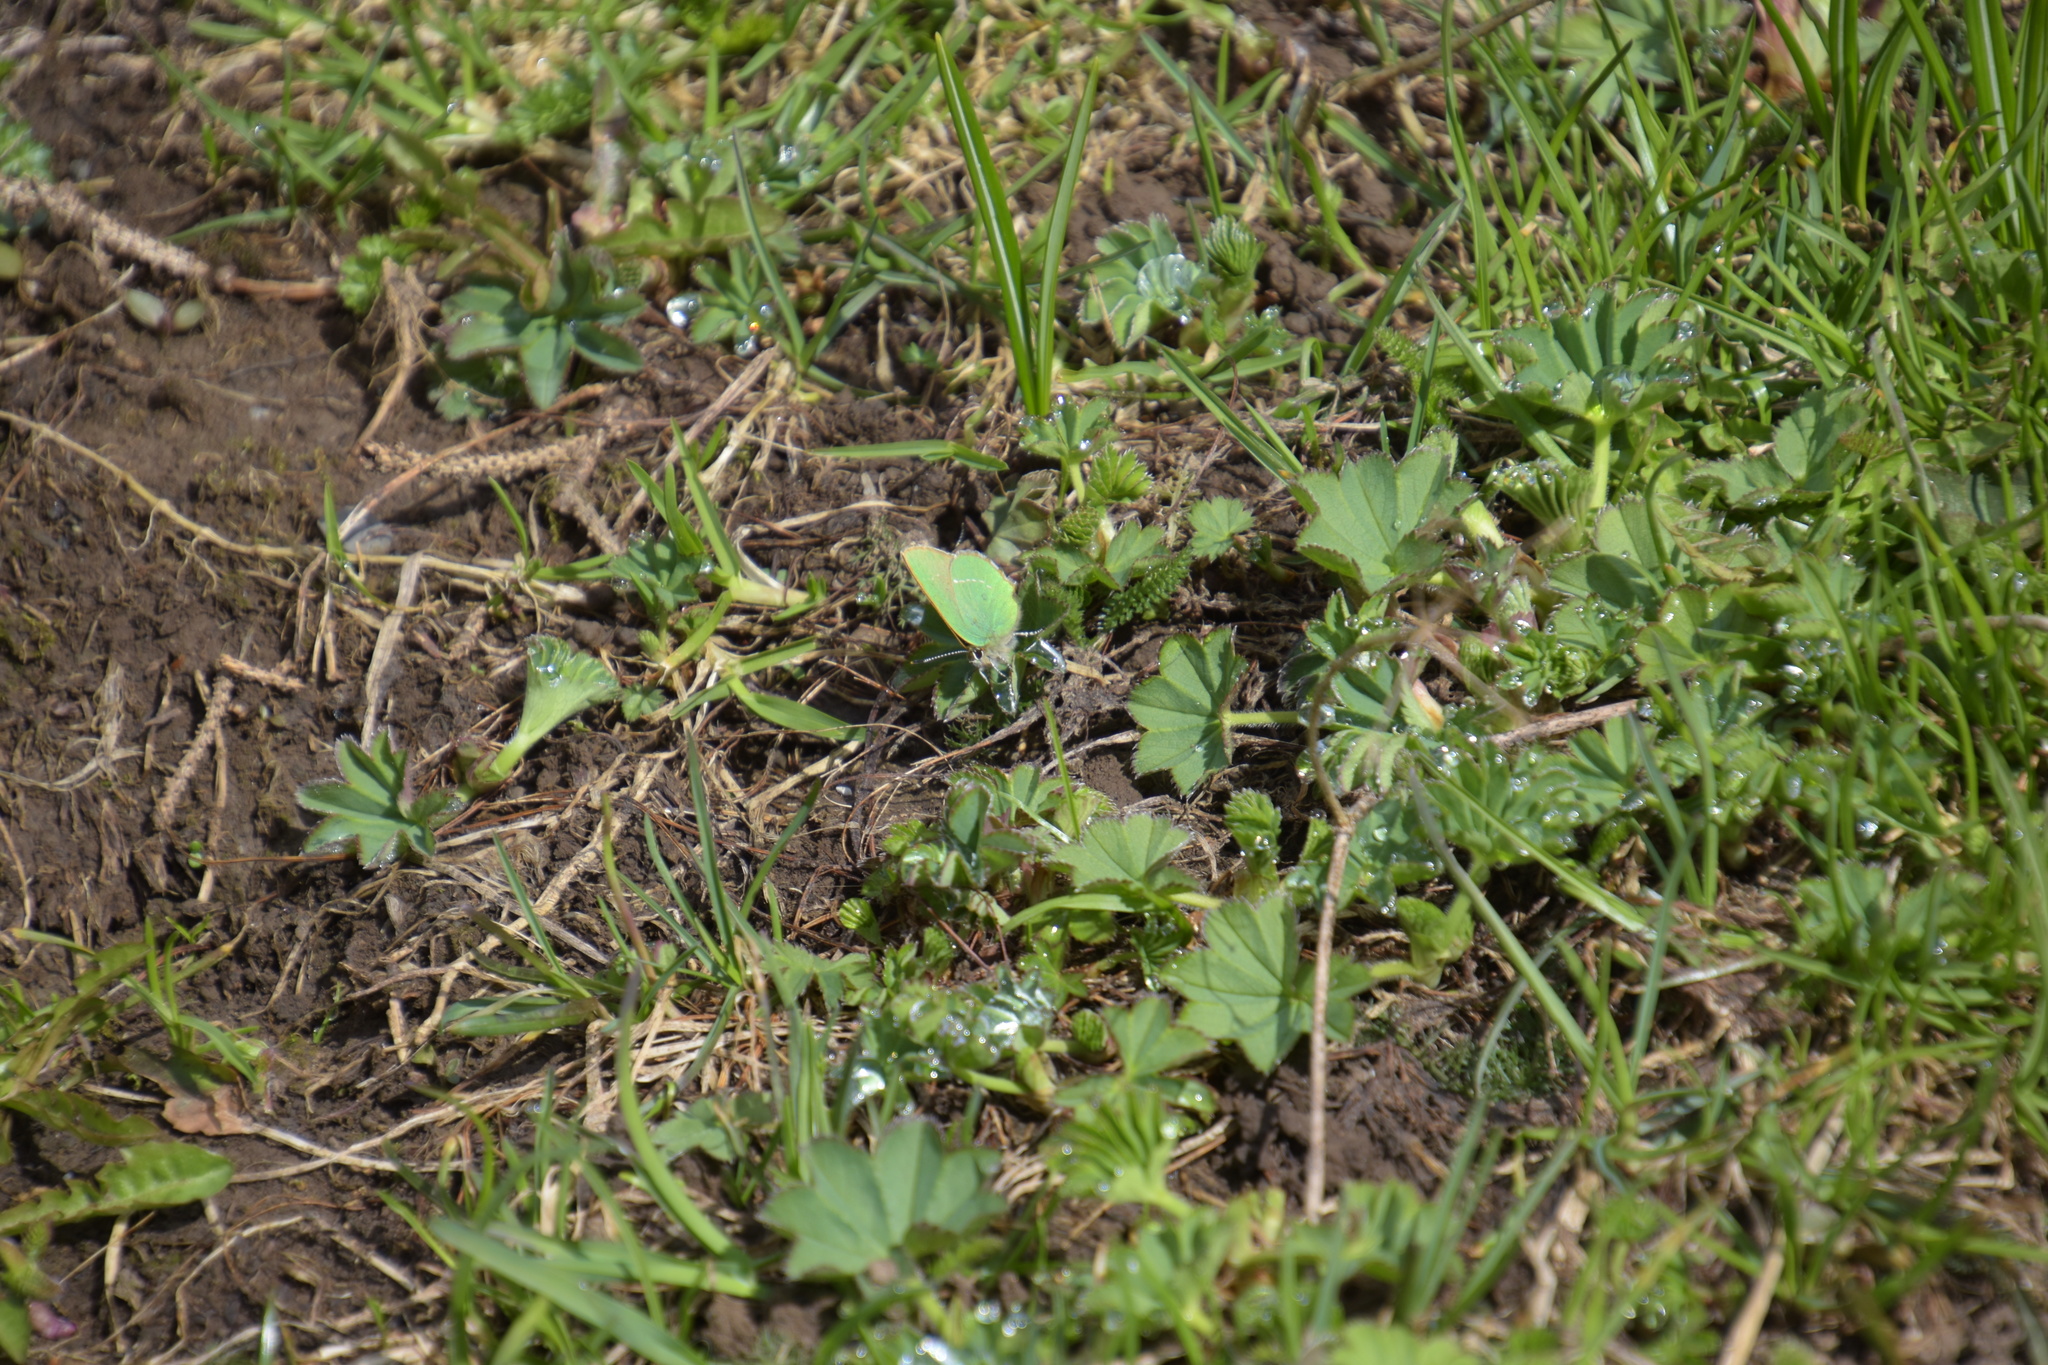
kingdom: Animalia
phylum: Arthropoda
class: Insecta
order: Lepidoptera
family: Lycaenidae
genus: Callophrys
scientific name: Callophrys rubi
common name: Green hairstreak
